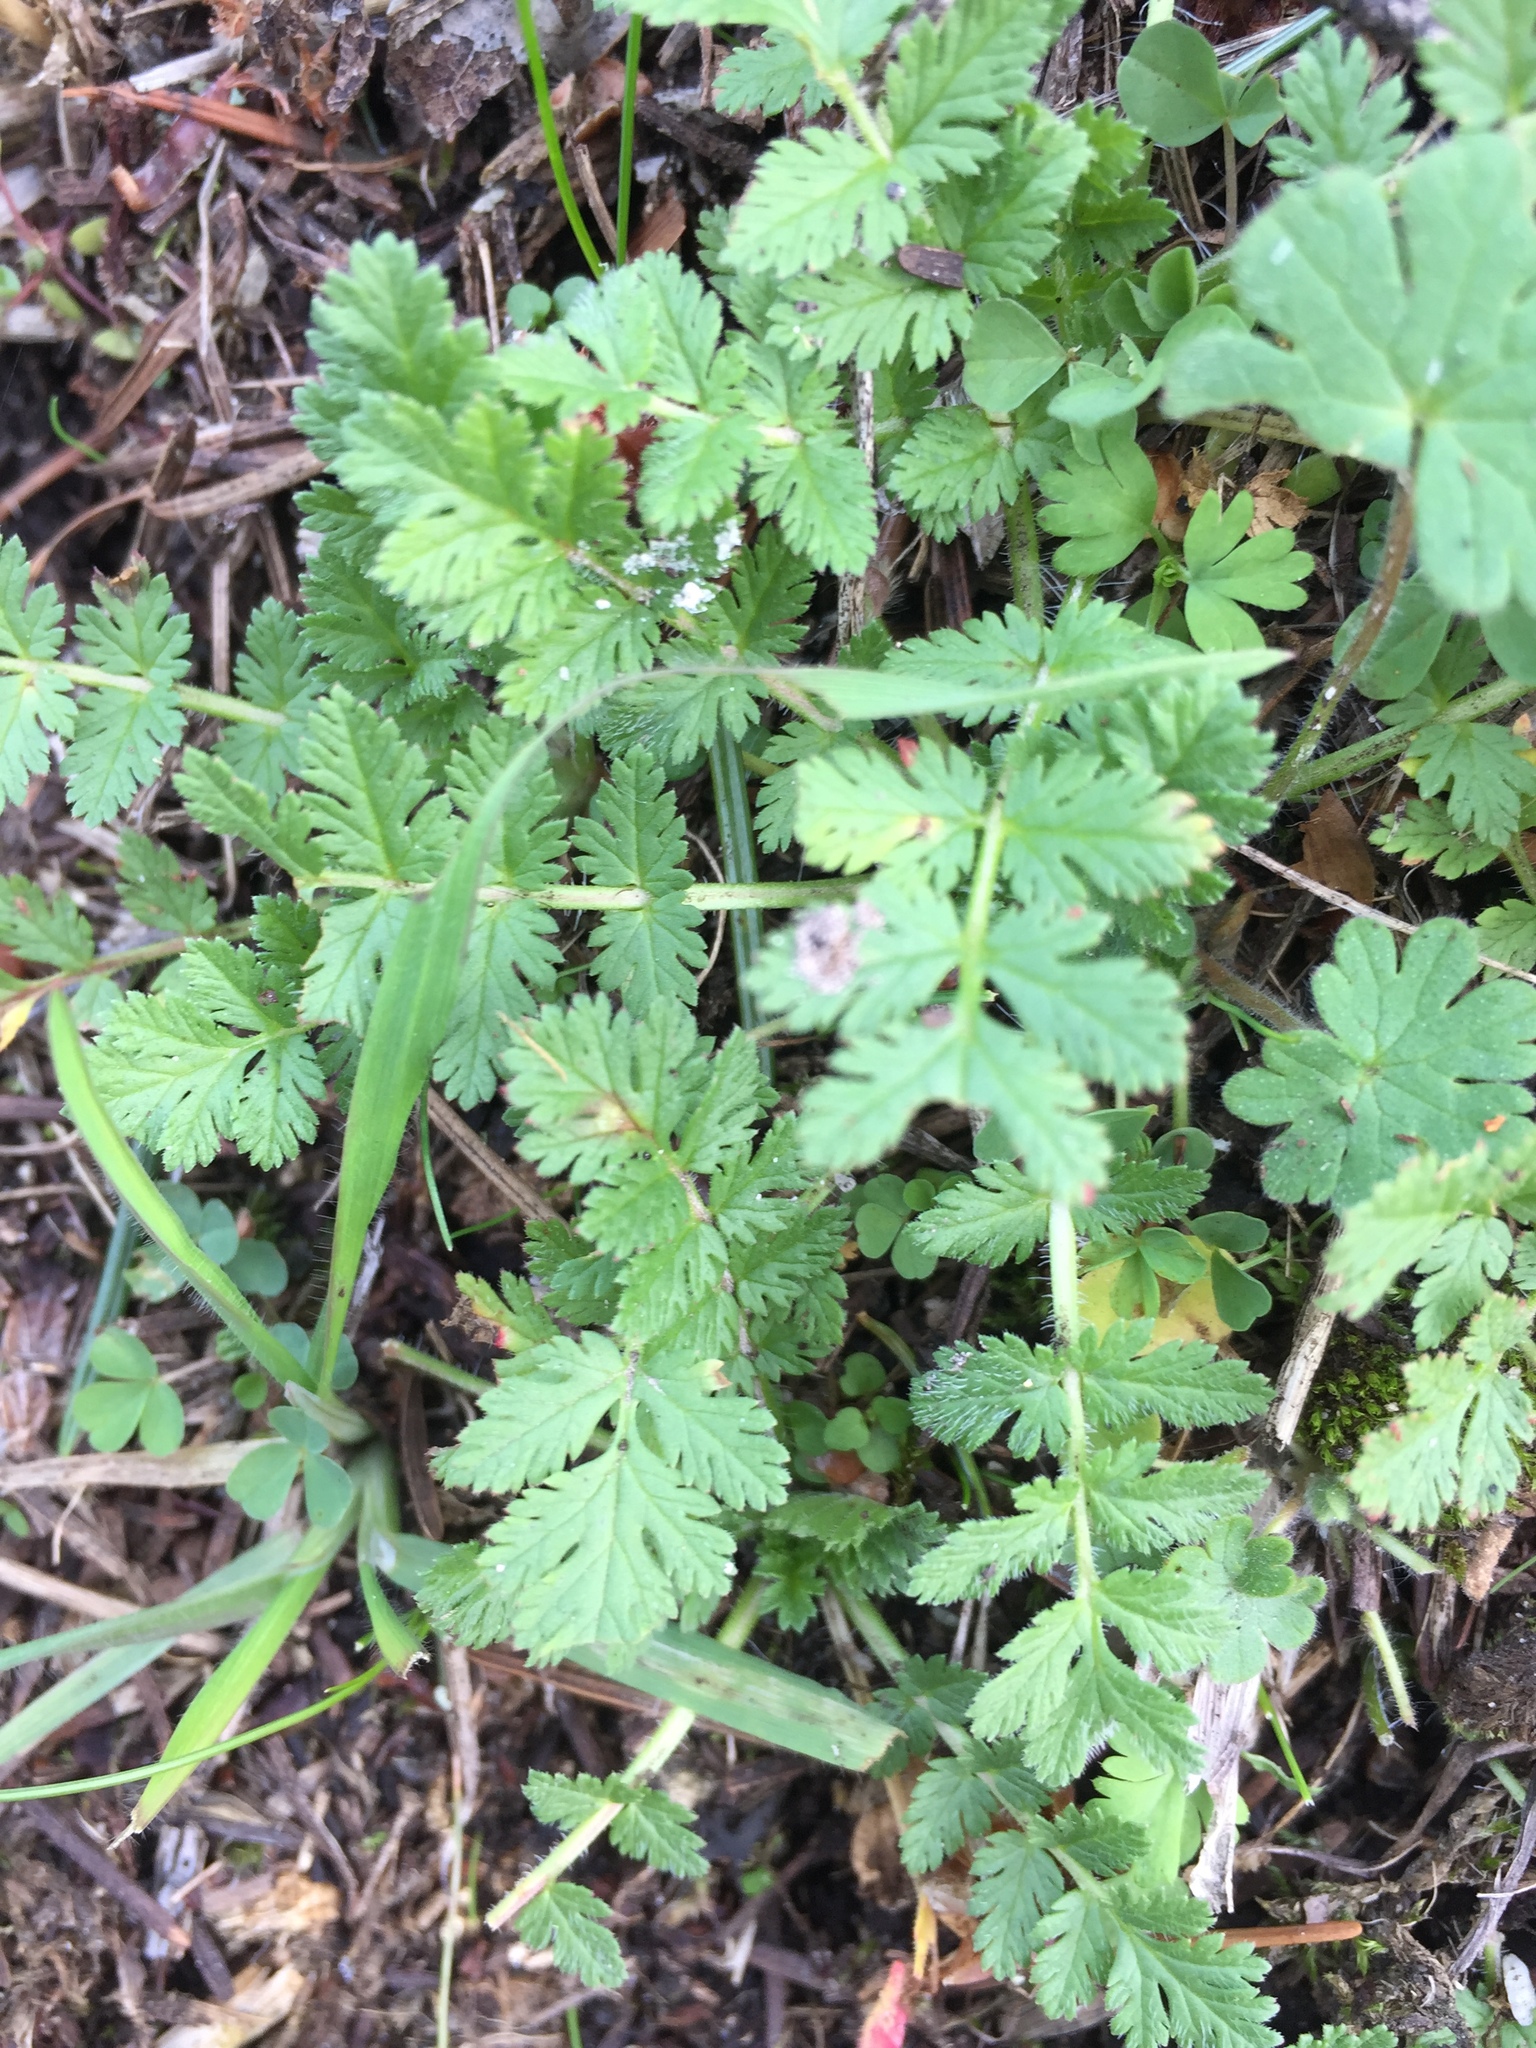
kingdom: Plantae
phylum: Tracheophyta
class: Magnoliopsida
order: Geraniales
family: Geraniaceae
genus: Erodium
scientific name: Erodium cicutarium
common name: Common stork's-bill
